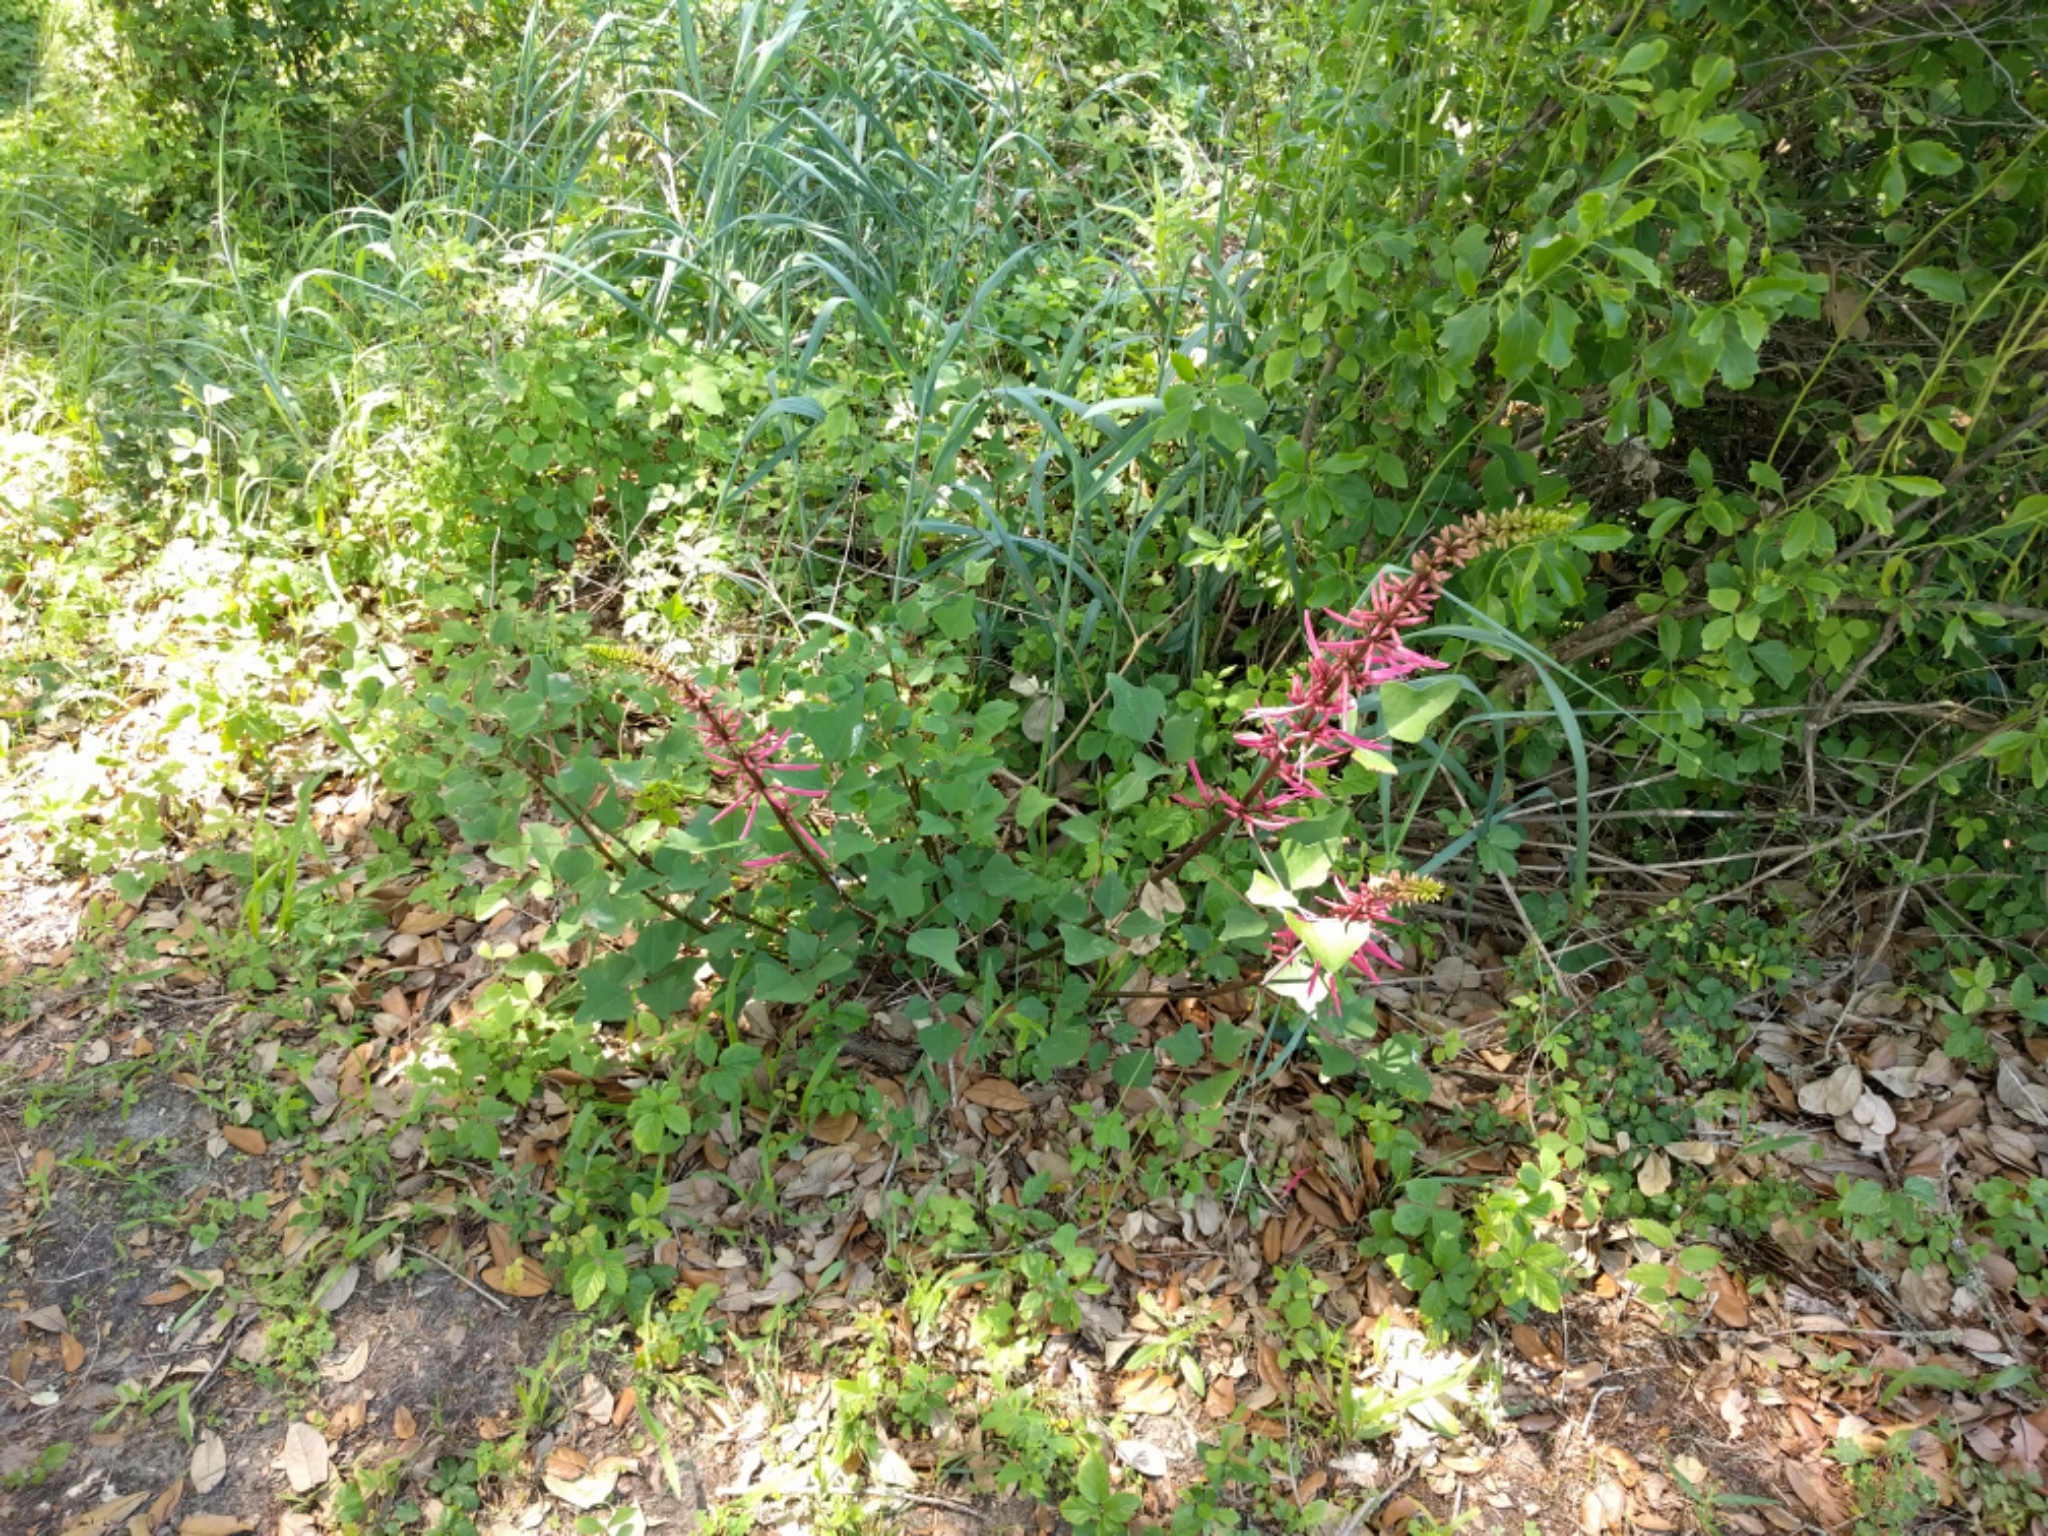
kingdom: Plantae
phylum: Tracheophyta
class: Magnoliopsida
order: Fabales
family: Fabaceae
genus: Erythrina
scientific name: Erythrina herbacea
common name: Coral-bean
